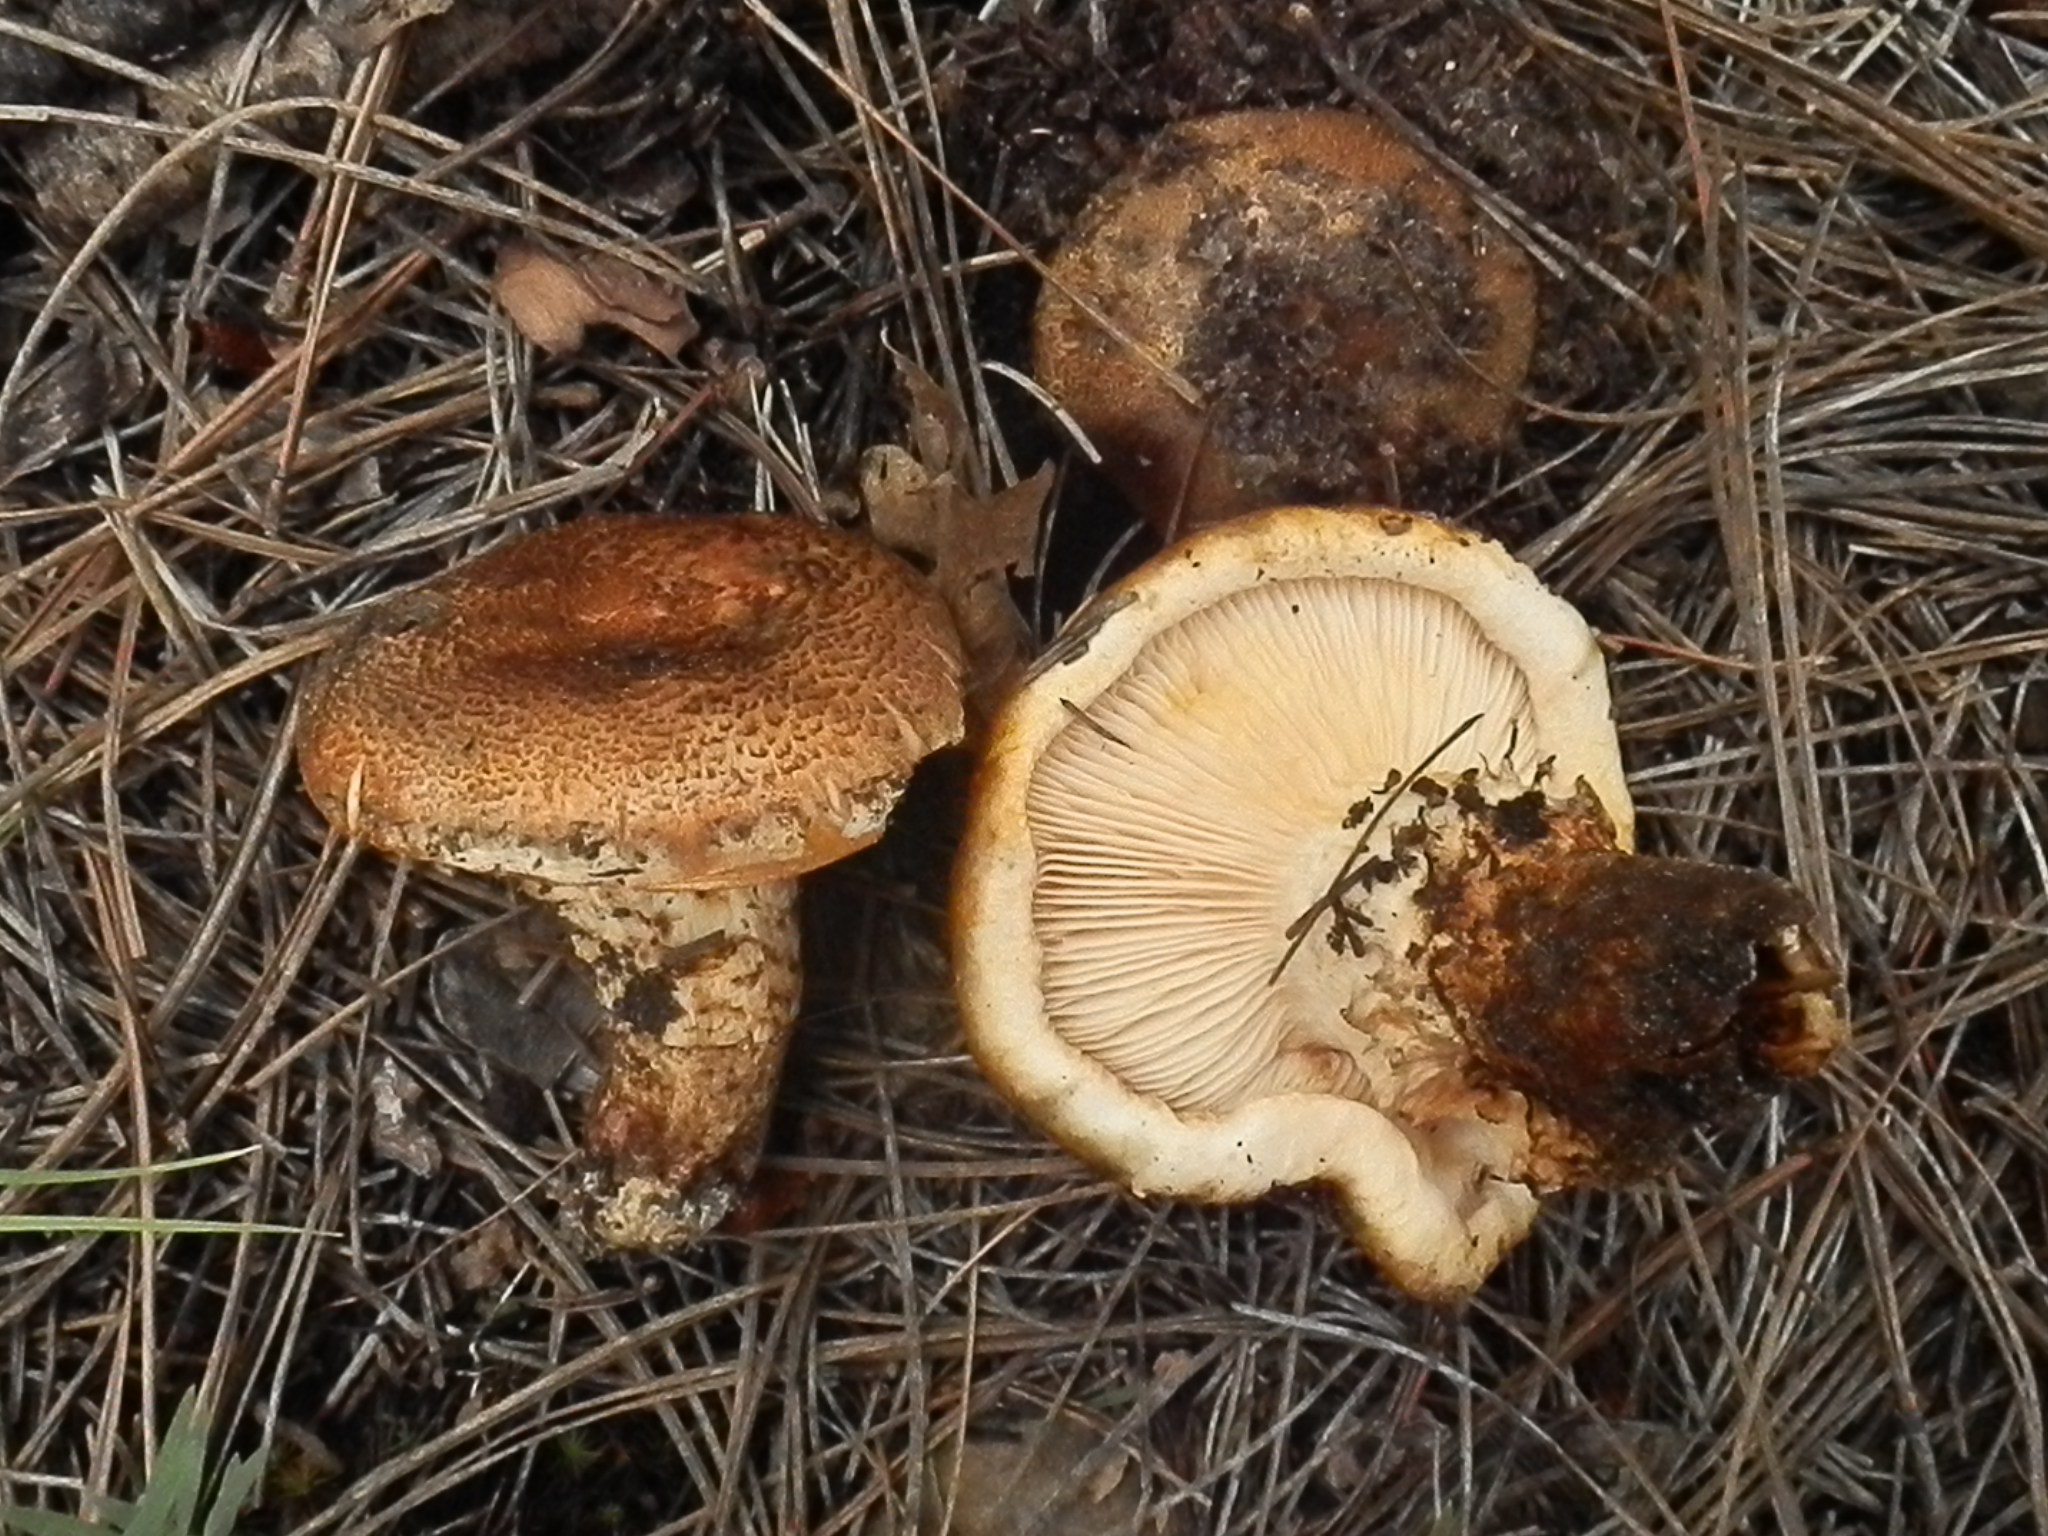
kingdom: Fungi
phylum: Basidiomycota
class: Agaricomycetes
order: Agaricales
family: Tricholomataceae
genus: Tricholoma
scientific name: Tricholoma focale
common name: Booted knight
